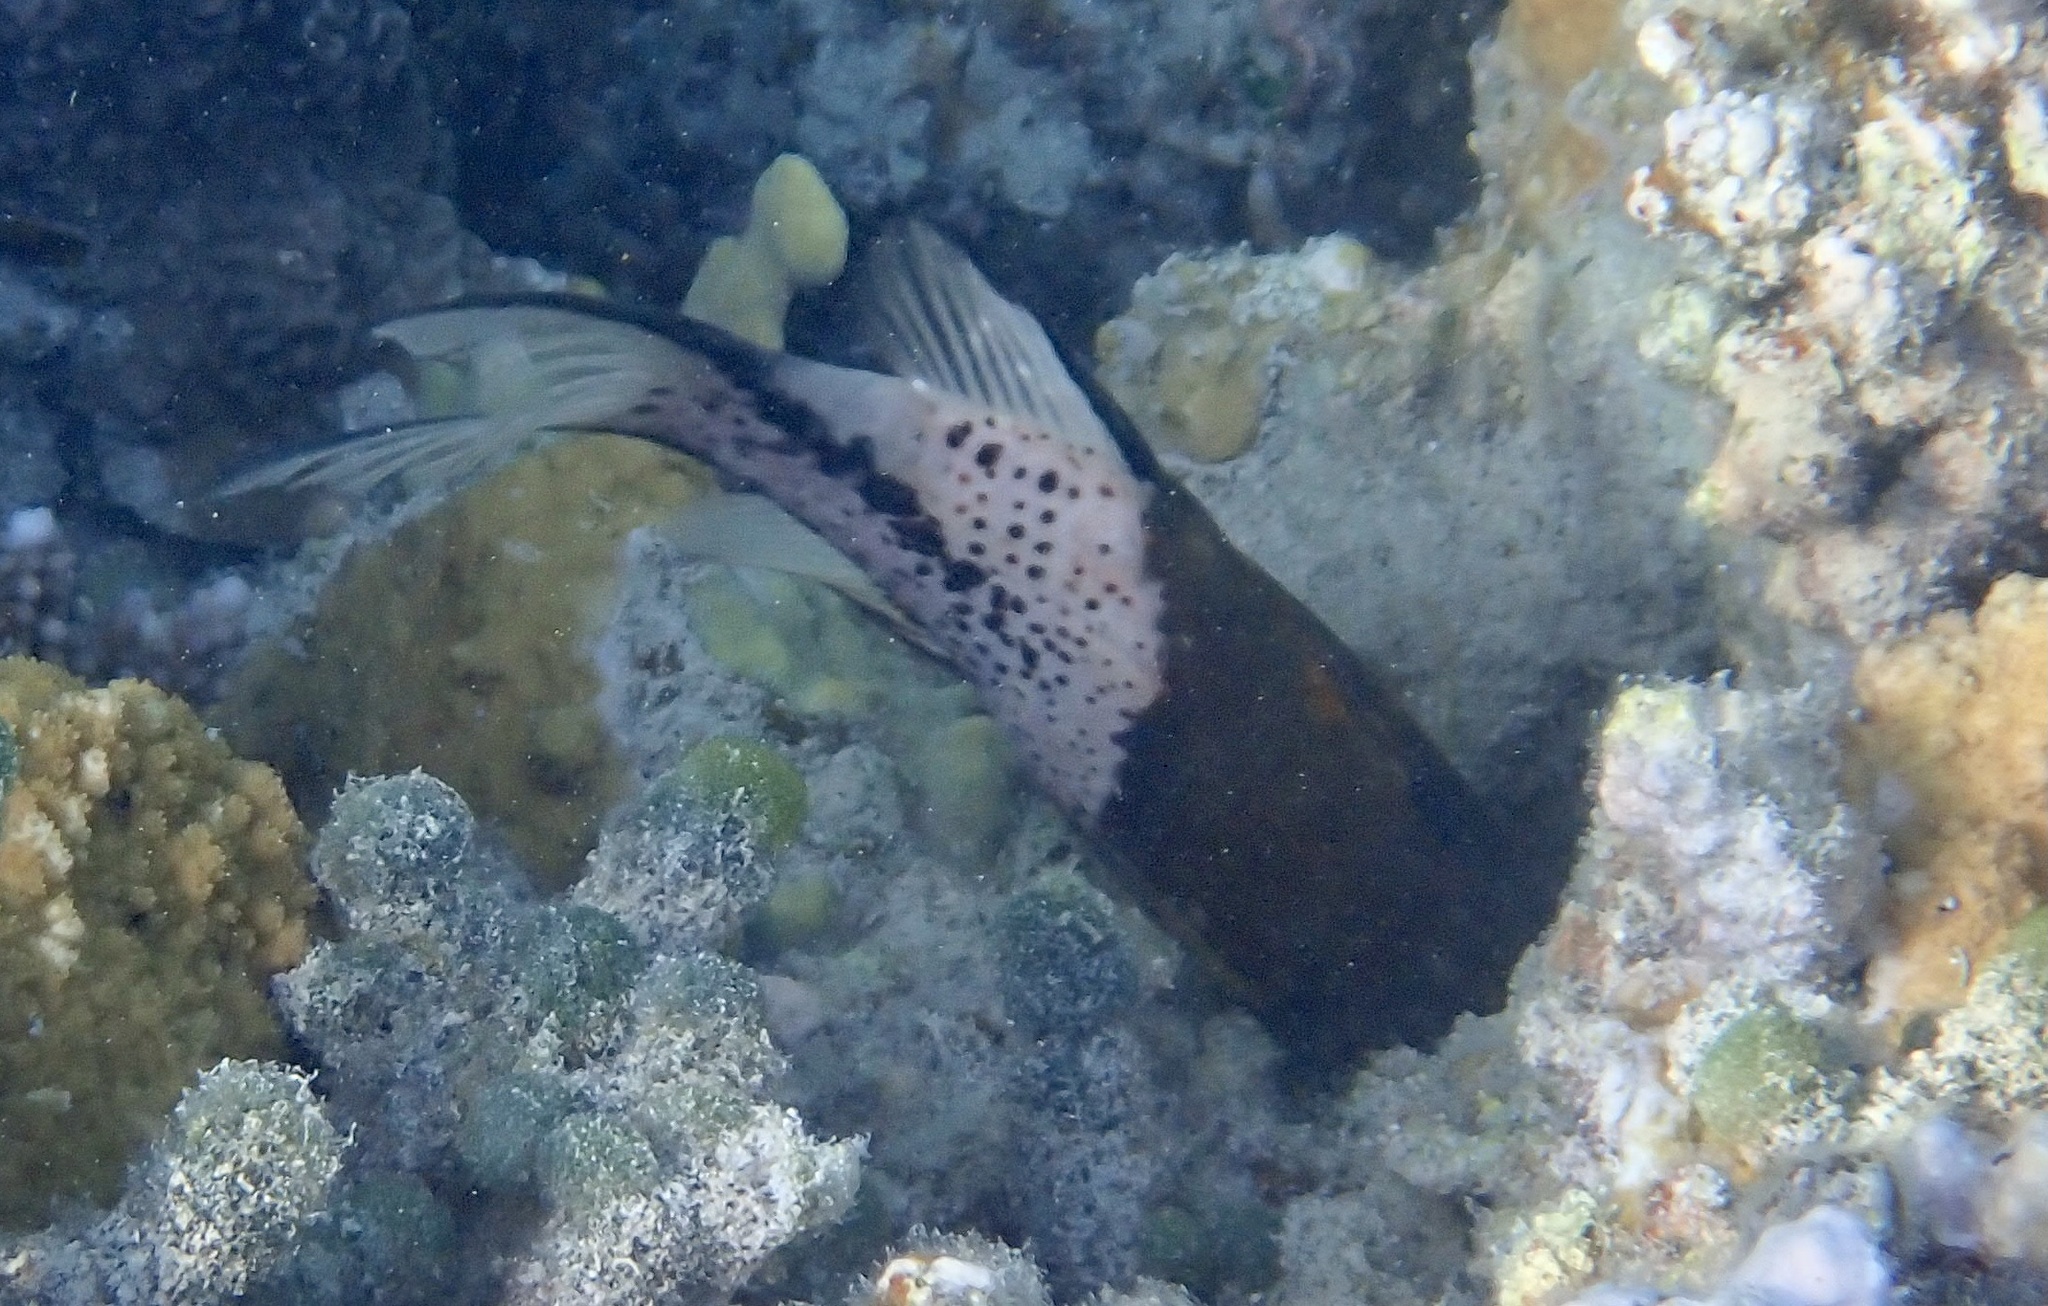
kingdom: Animalia
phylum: Chordata
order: Perciformes
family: Labridae
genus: Bodianus
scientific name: Bodianus anthioides
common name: Lyretail hogfish
